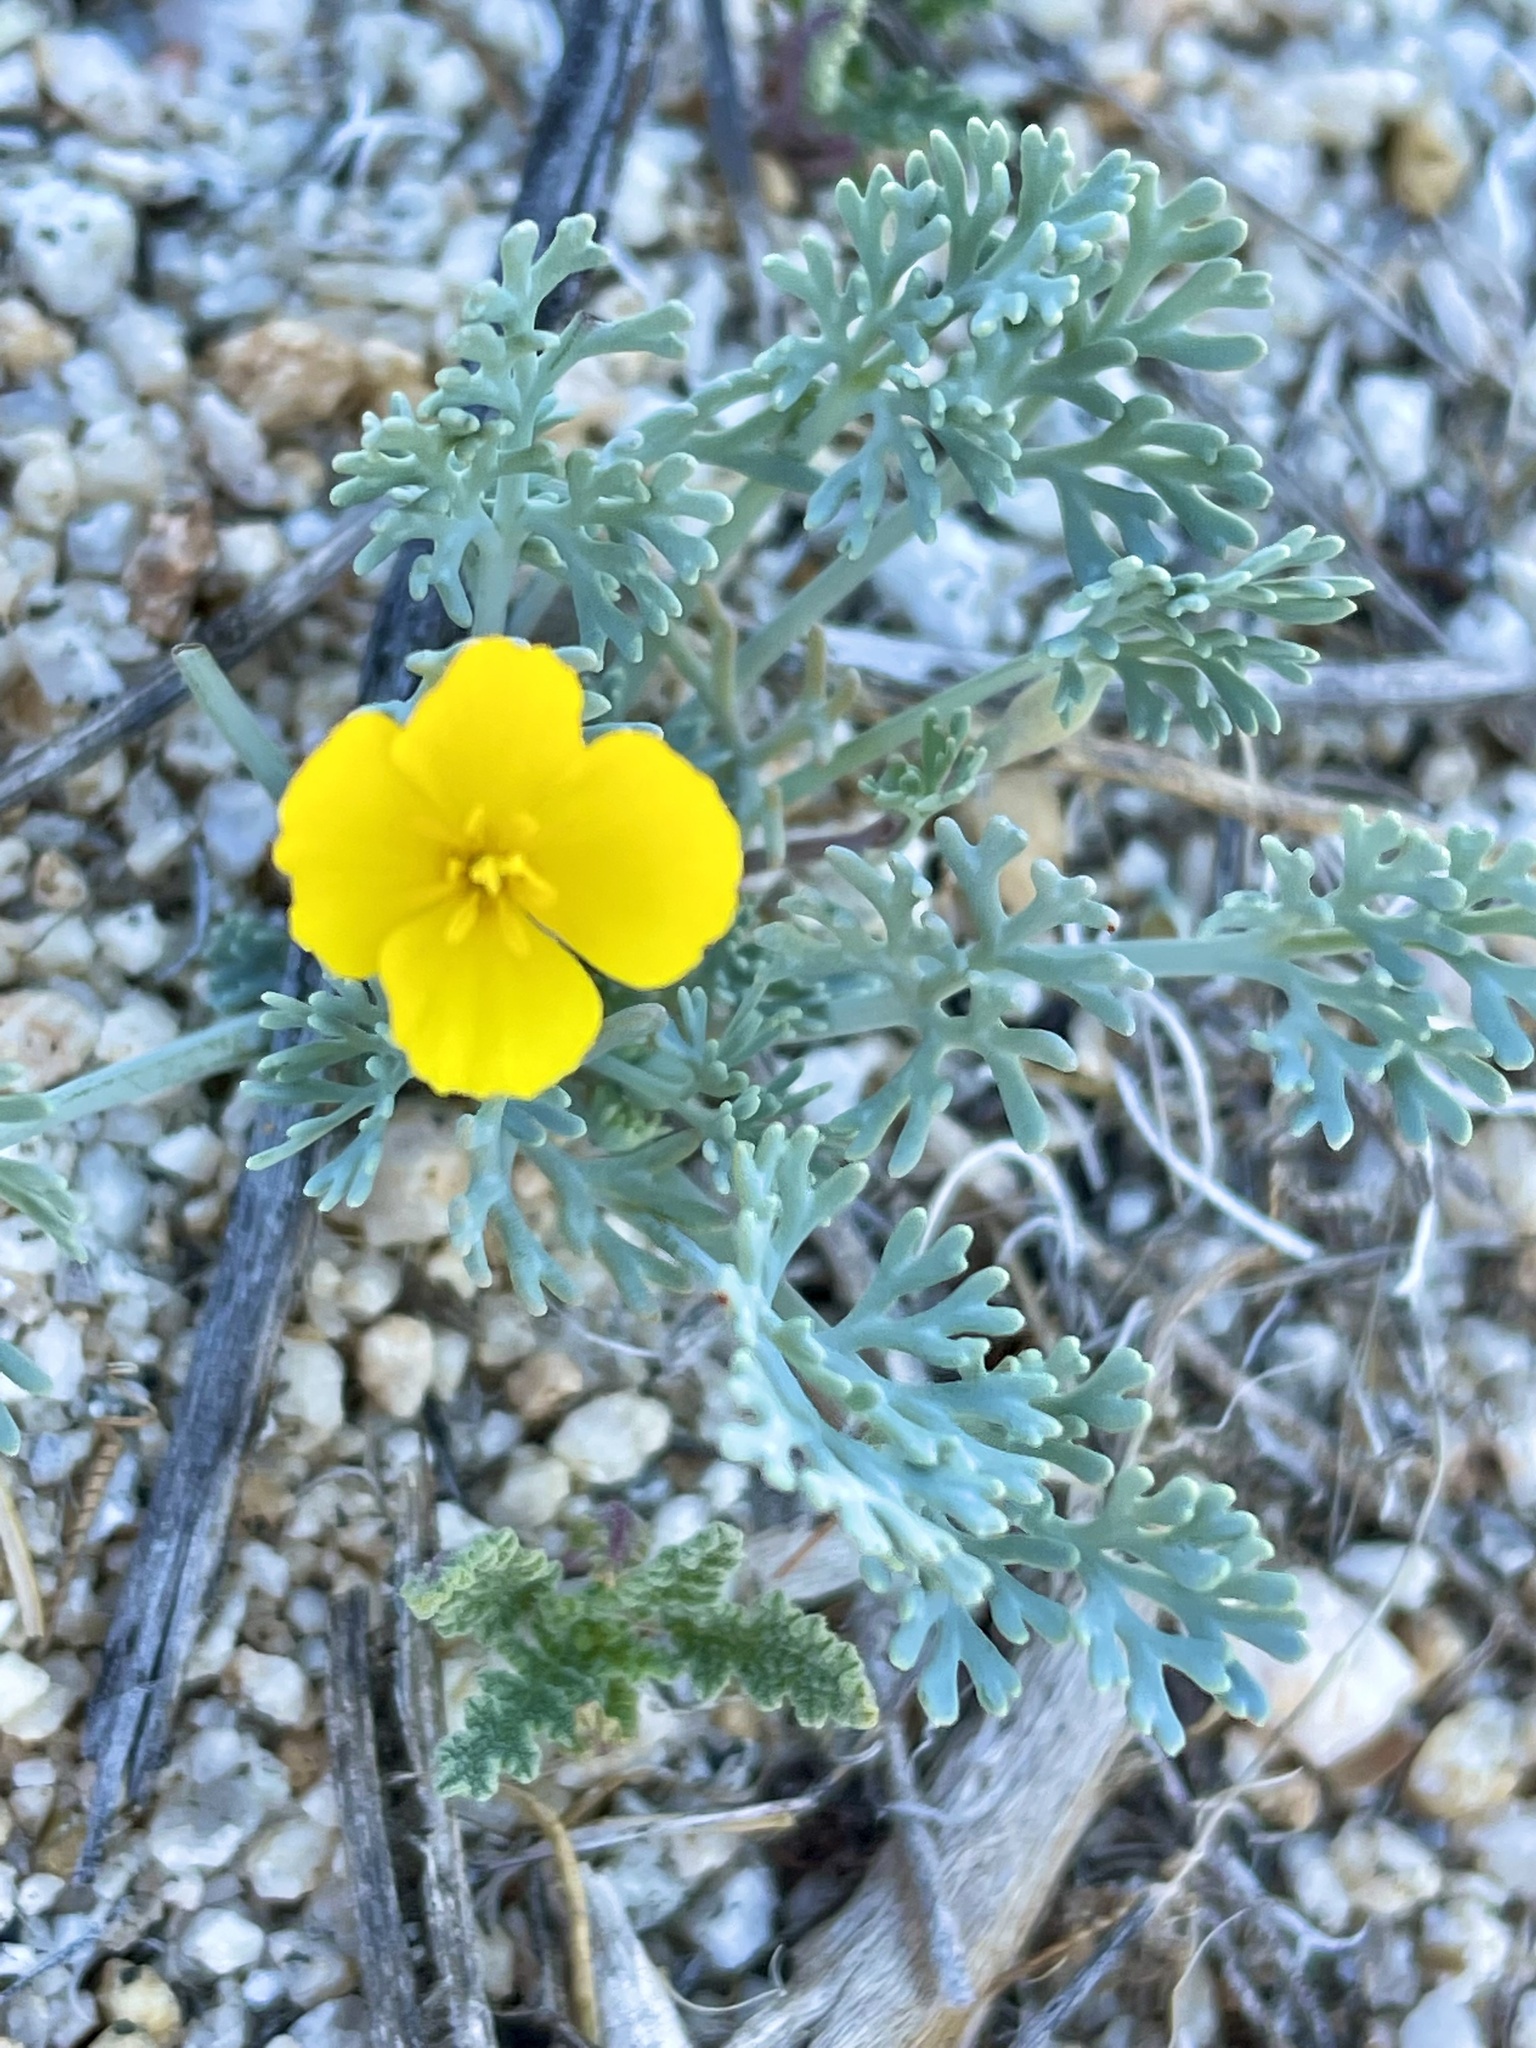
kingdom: Plantae
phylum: Tracheophyta
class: Magnoliopsida
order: Ranunculales
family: Papaveraceae
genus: Eschscholzia
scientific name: Eschscholzia minutiflora
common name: Small-flower california-poppy
